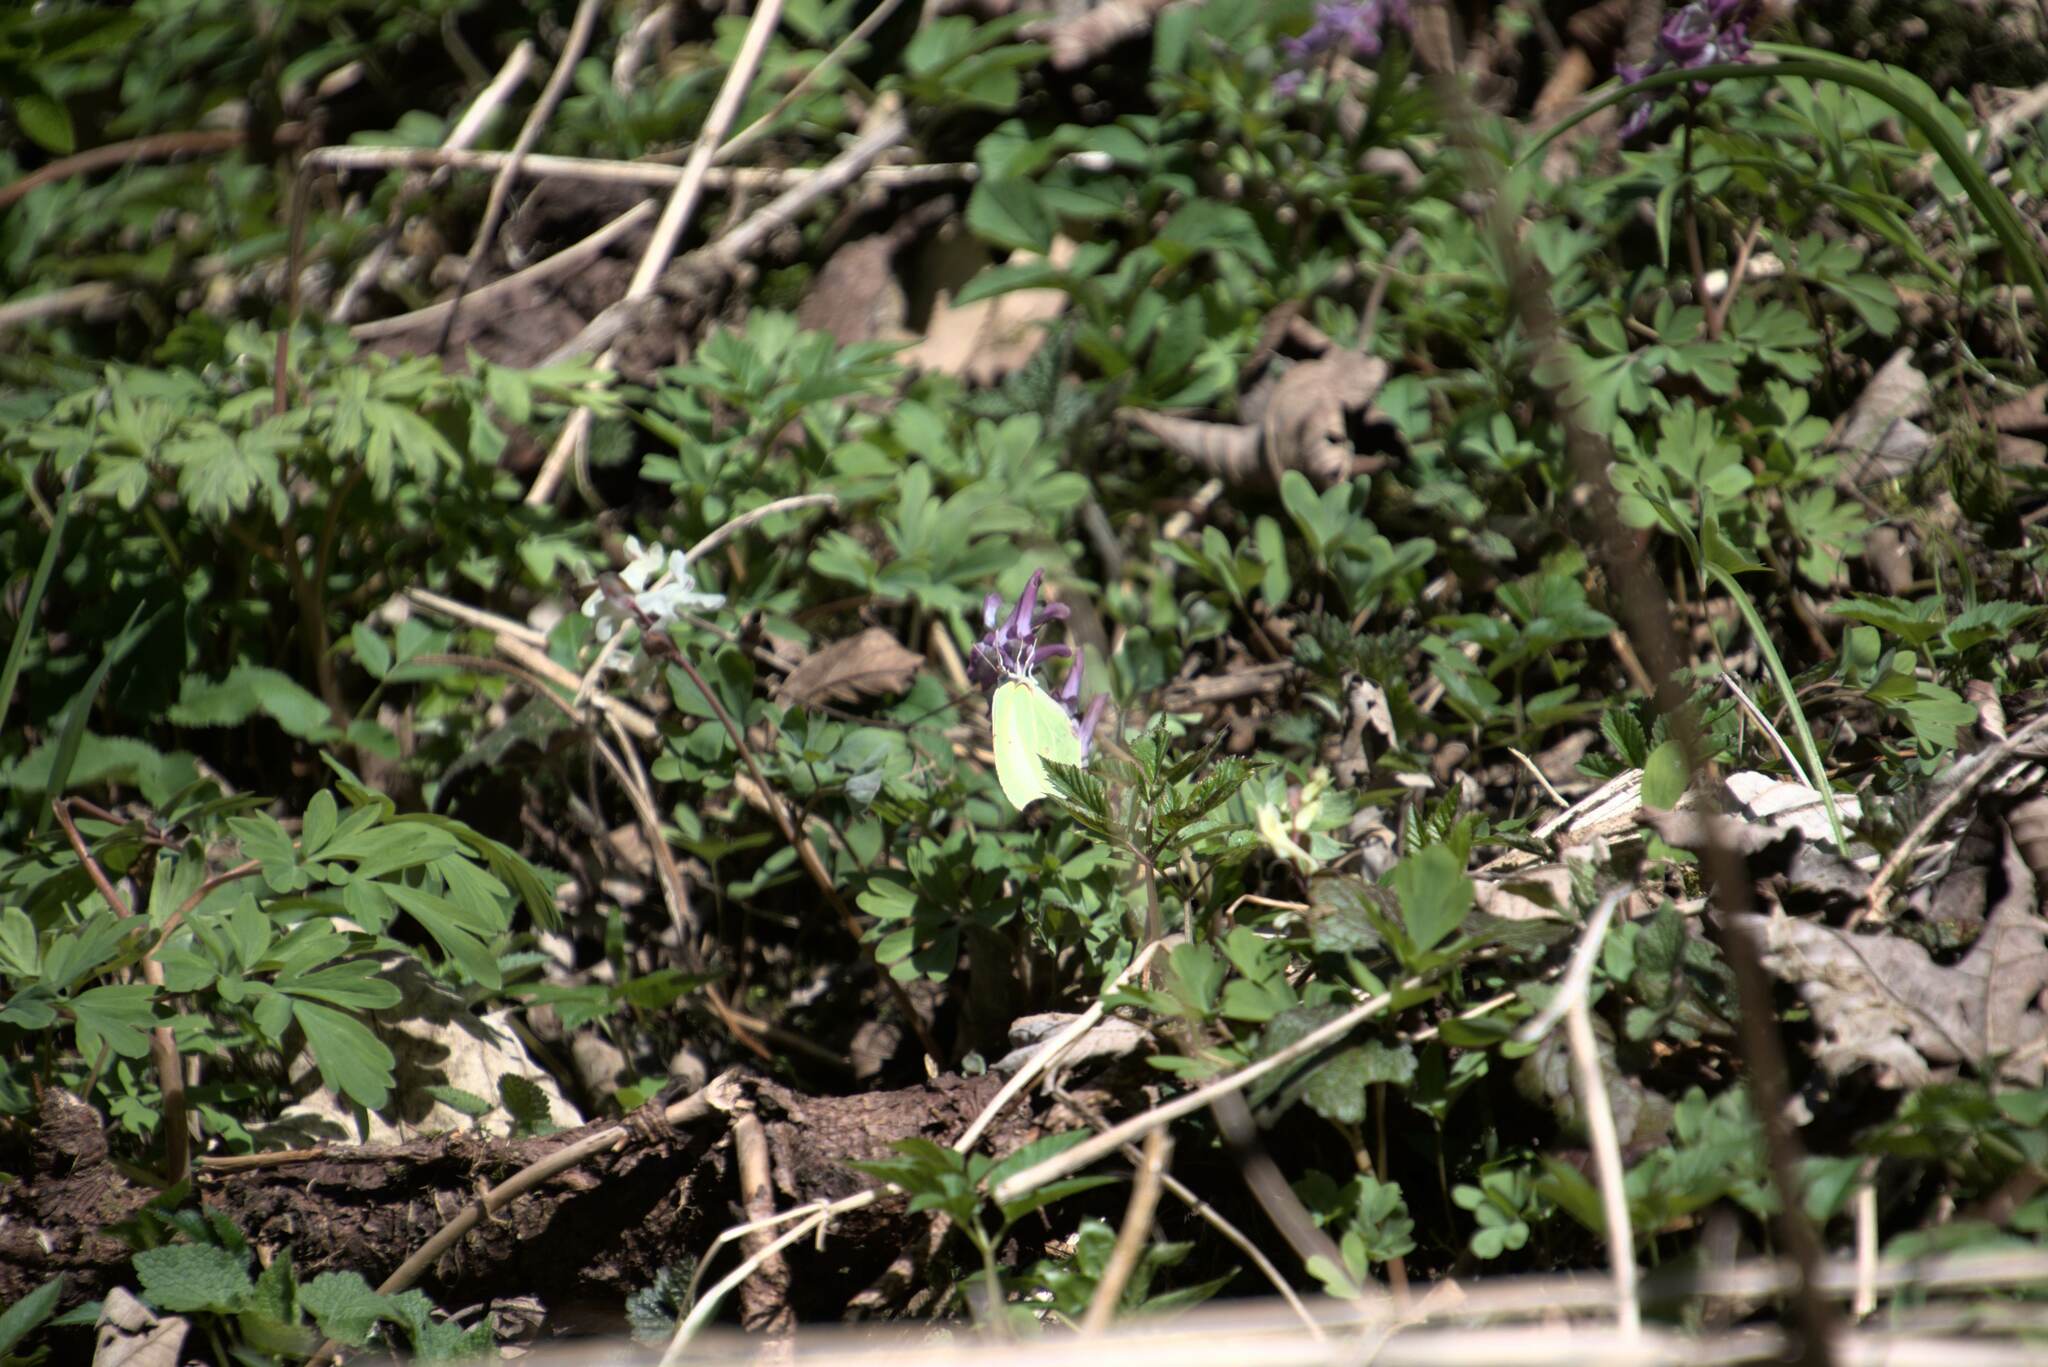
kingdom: Animalia
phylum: Arthropoda
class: Insecta
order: Lepidoptera
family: Pieridae
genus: Gonepteryx
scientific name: Gonepteryx rhamni
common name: Brimstone
